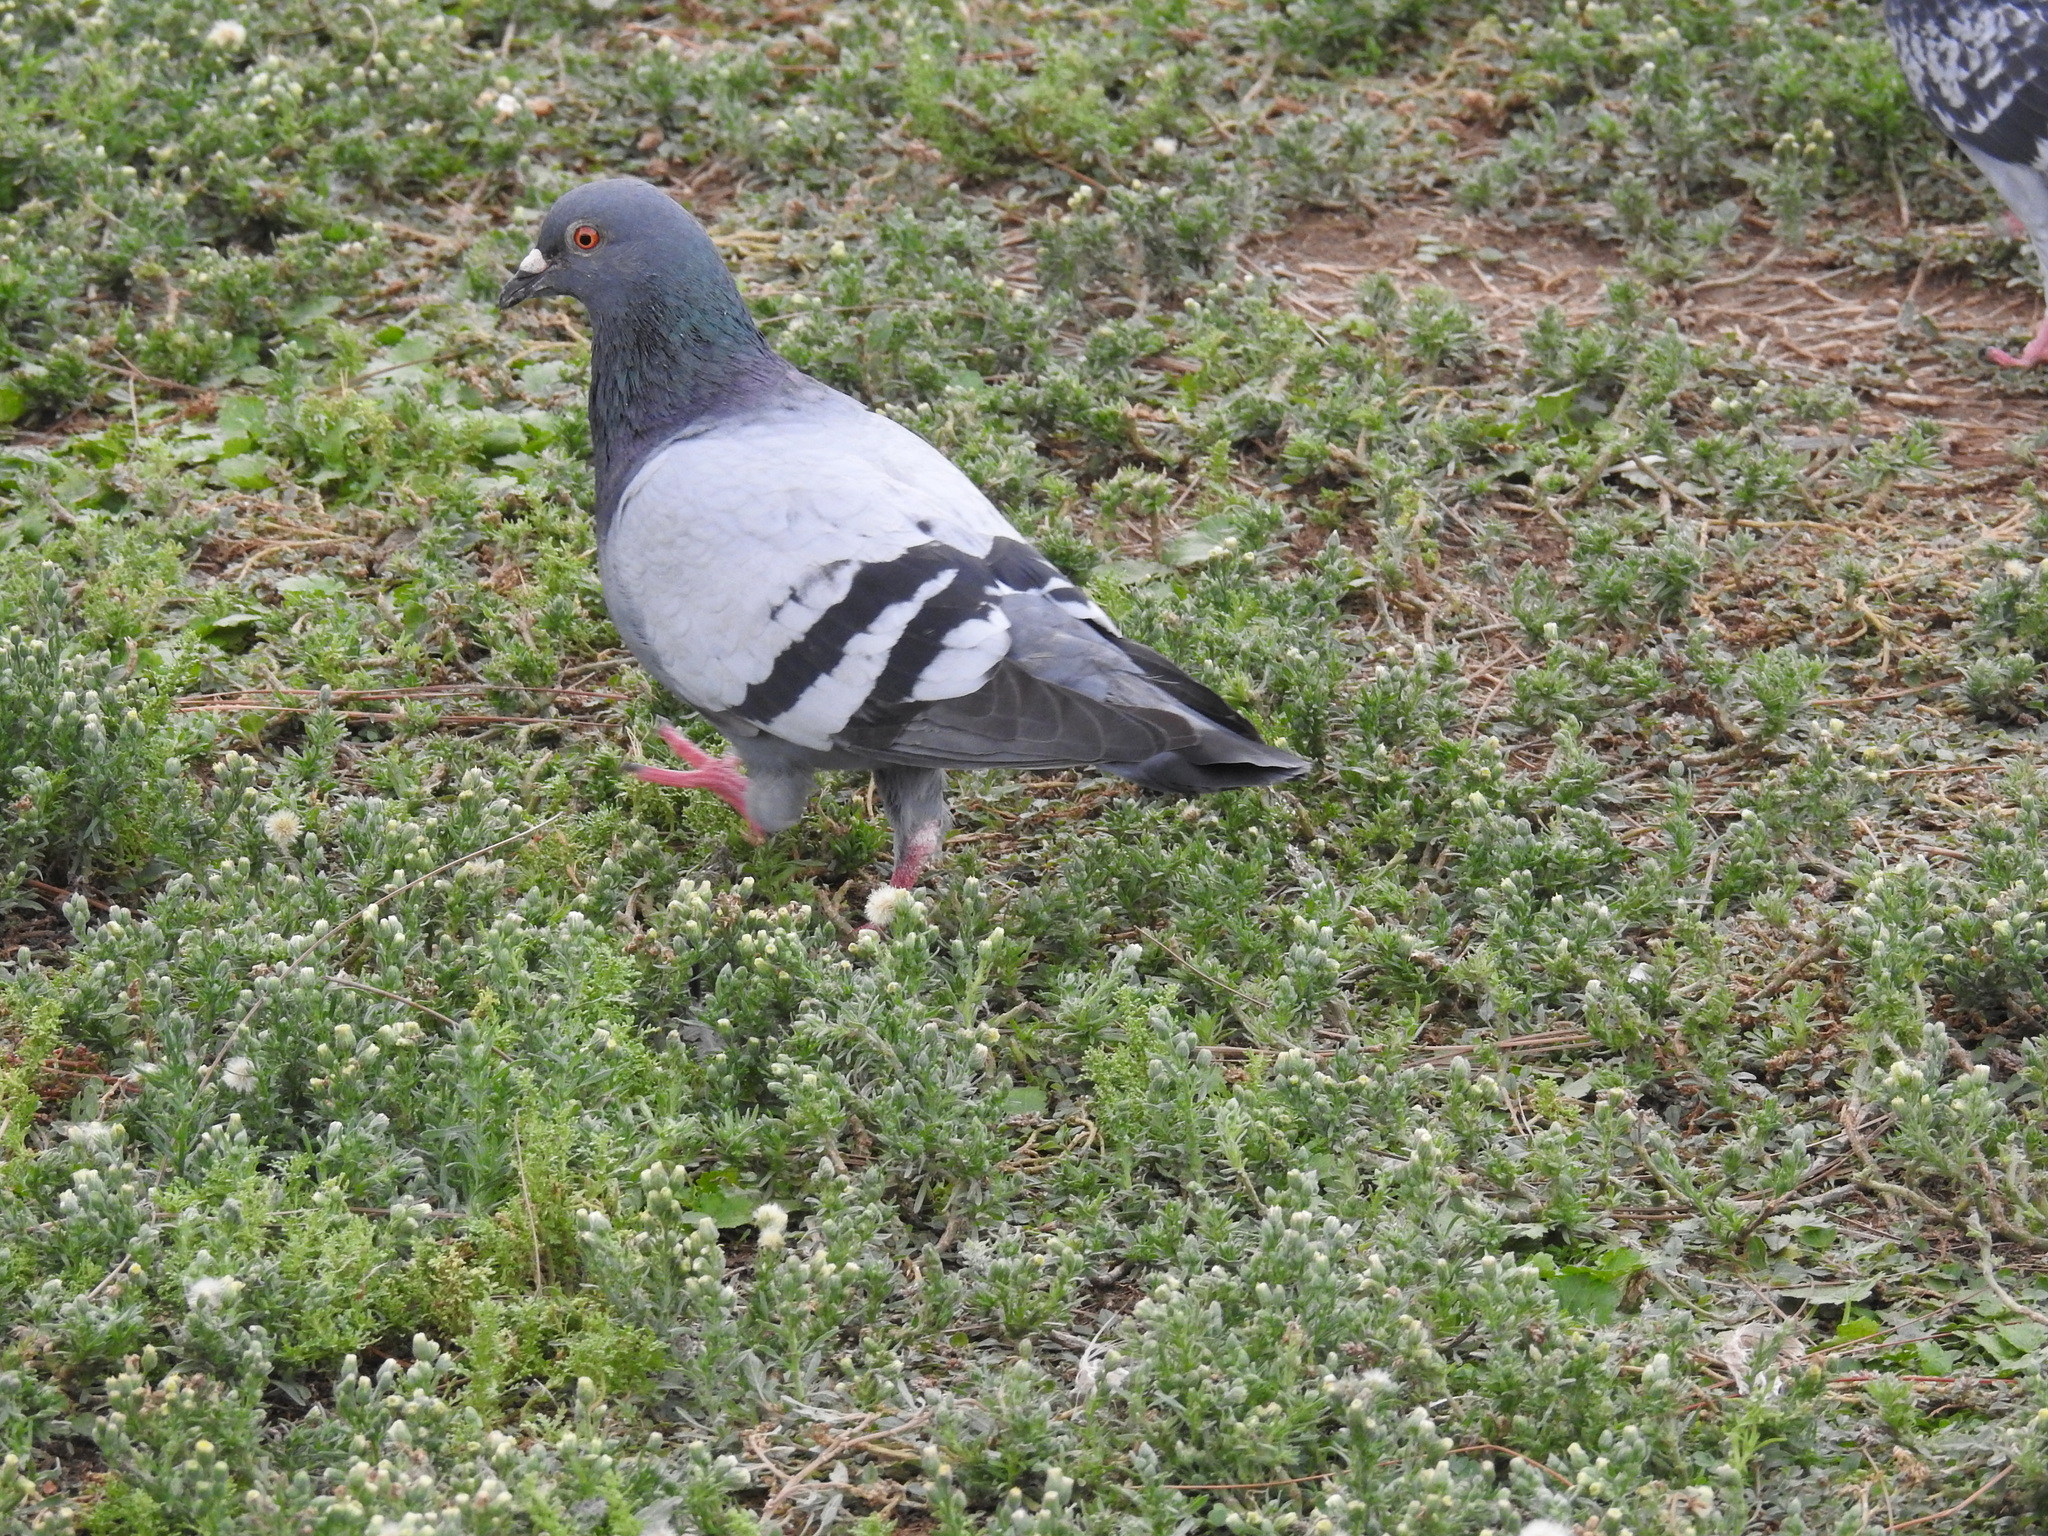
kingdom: Animalia
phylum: Chordata
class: Aves
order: Columbiformes
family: Columbidae
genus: Columba
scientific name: Columba livia
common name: Rock pigeon
